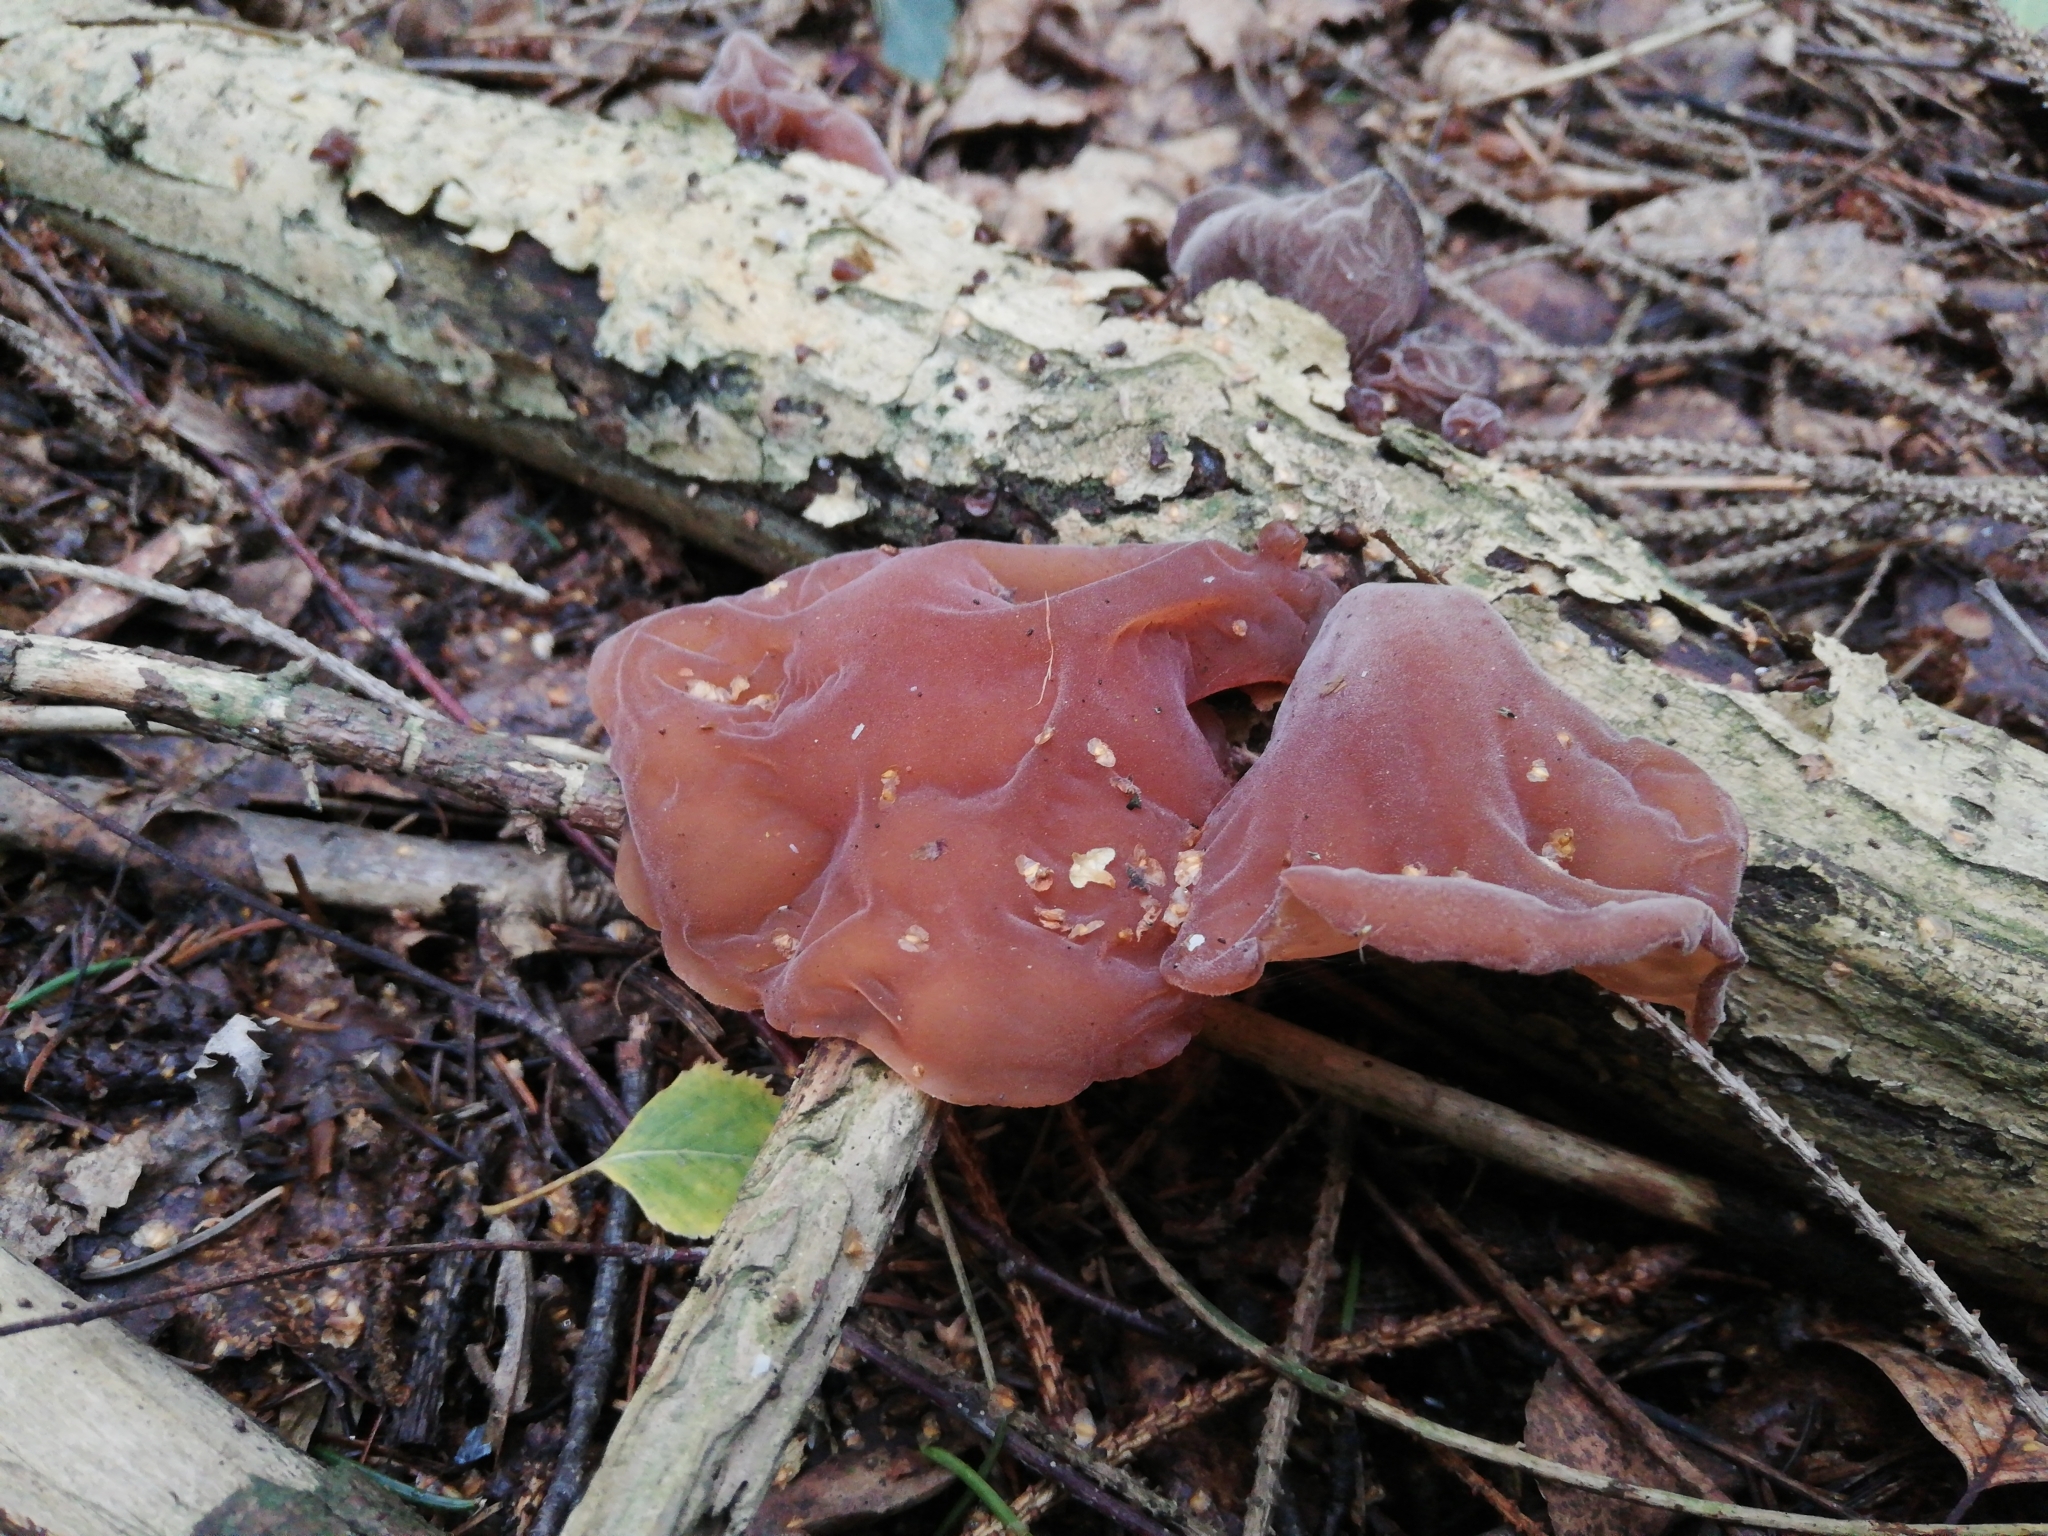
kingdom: Fungi
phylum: Basidiomycota
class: Agaricomycetes
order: Auriculariales
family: Auriculariaceae
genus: Auricularia
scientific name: Auricularia auricula-judae
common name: Jelly ear
